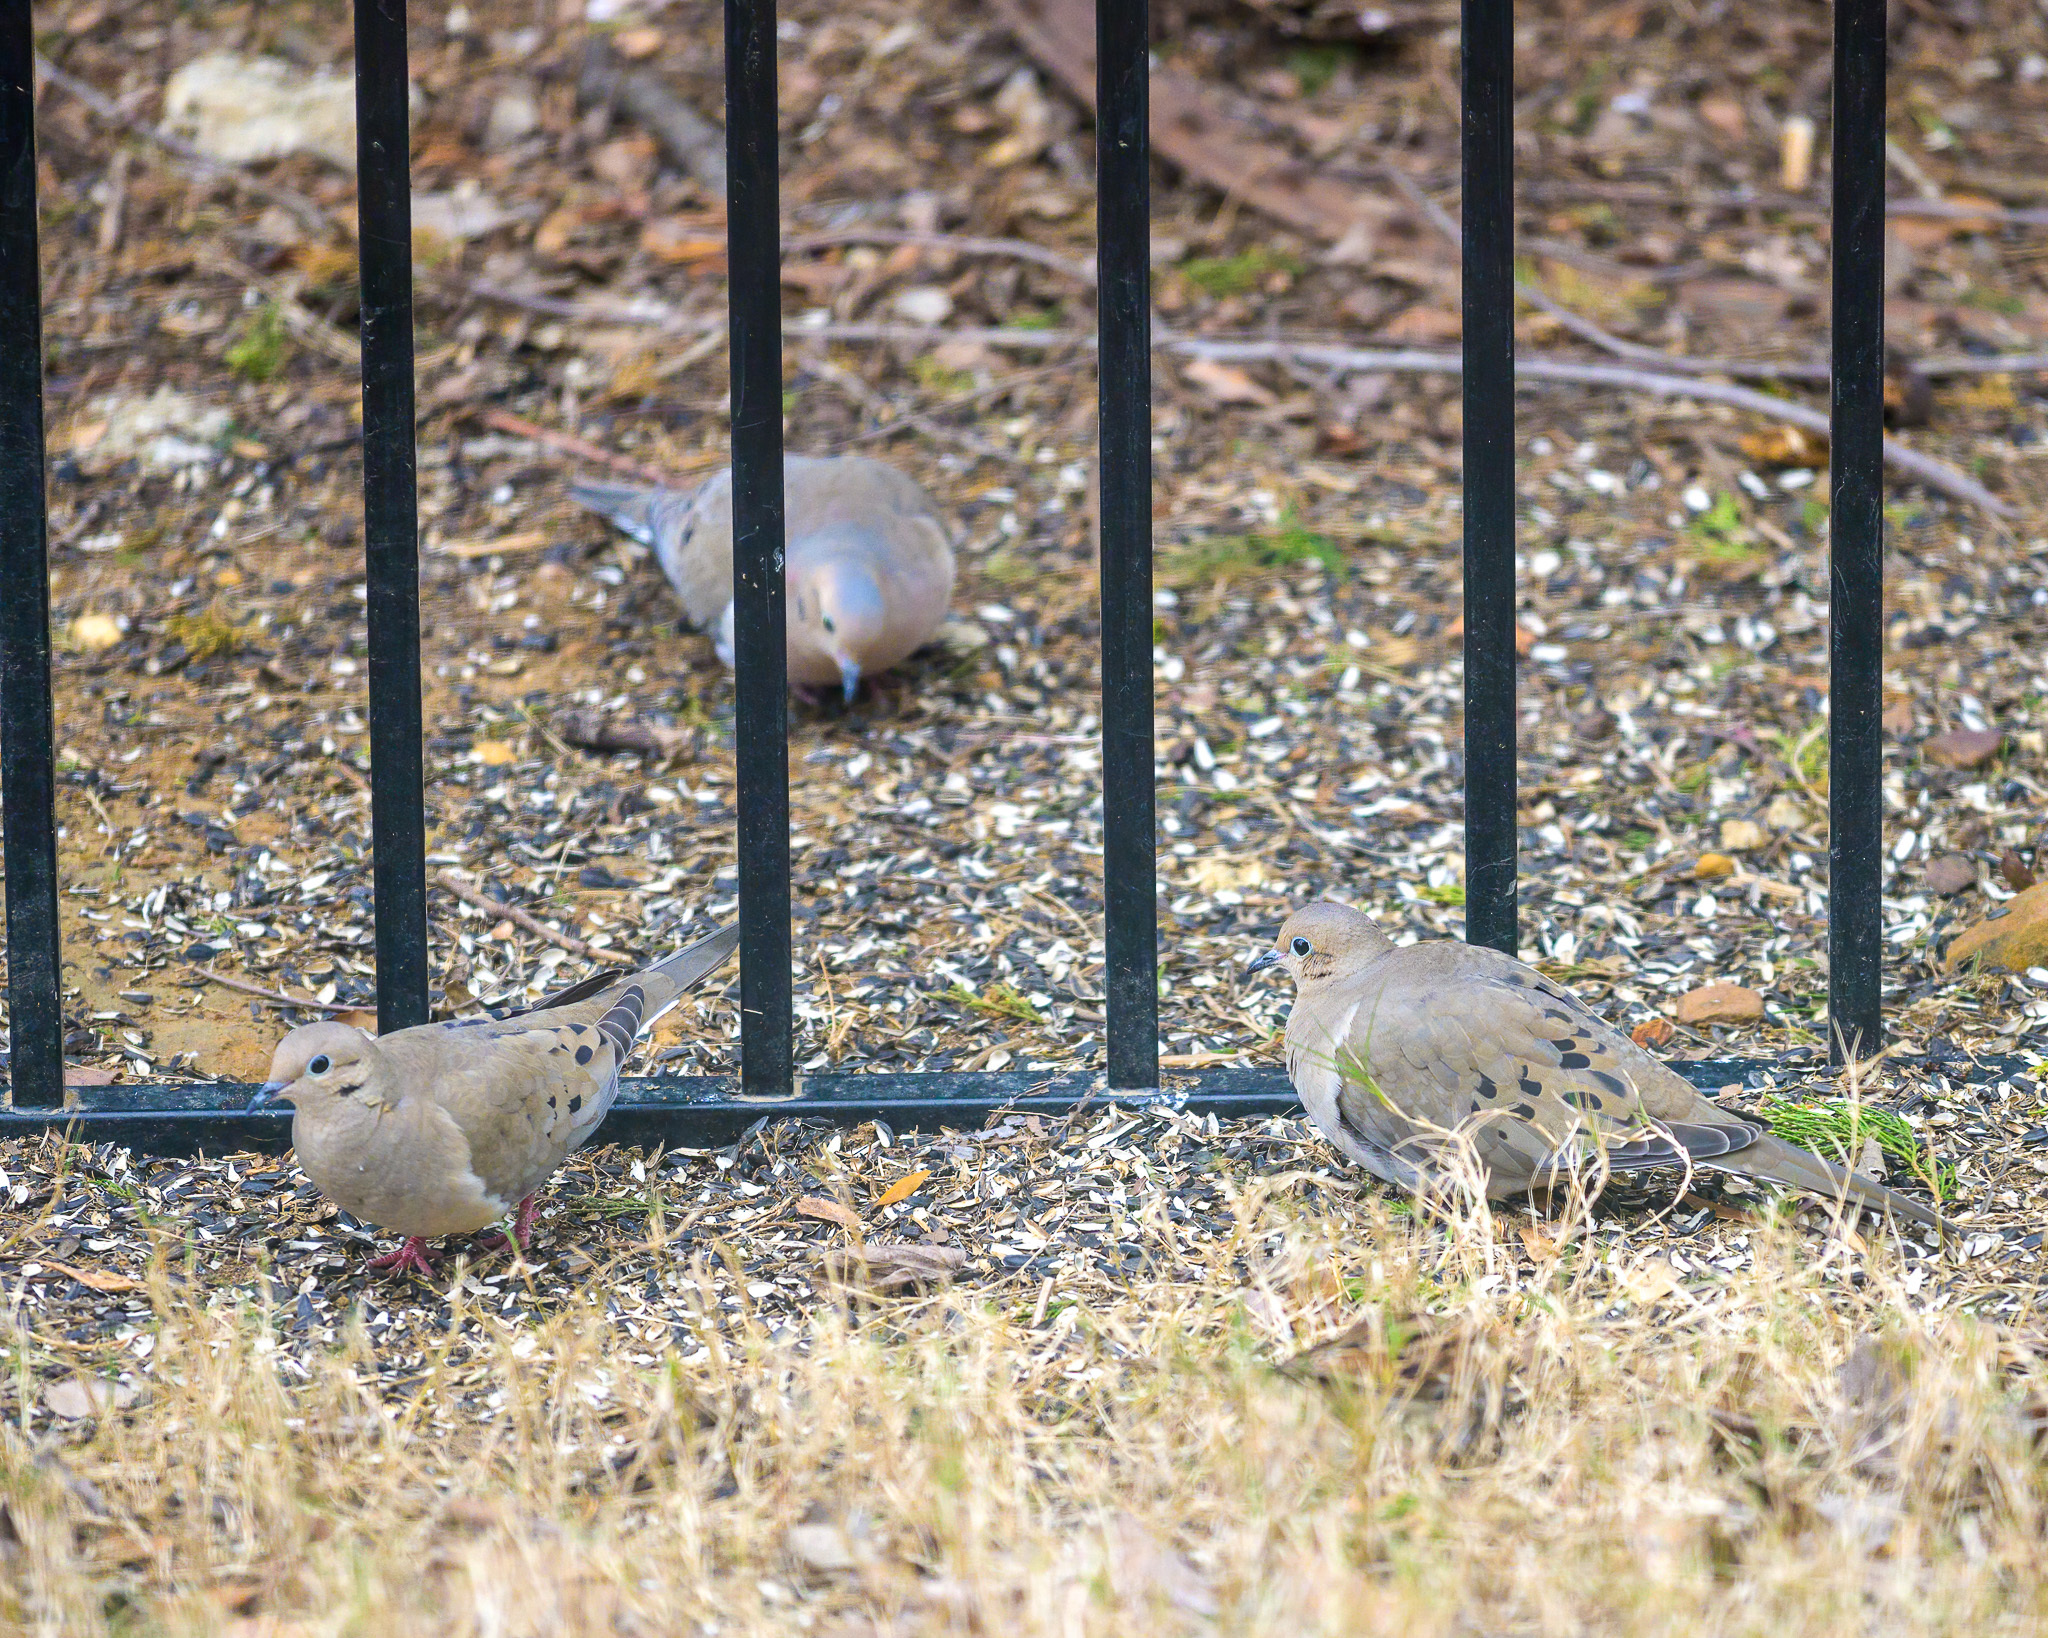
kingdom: Animalia
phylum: Chordata
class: Aves
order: Columbiformes
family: Columbidae
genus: Zenaida
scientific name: Zenaida macroura
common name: Mourning dove
